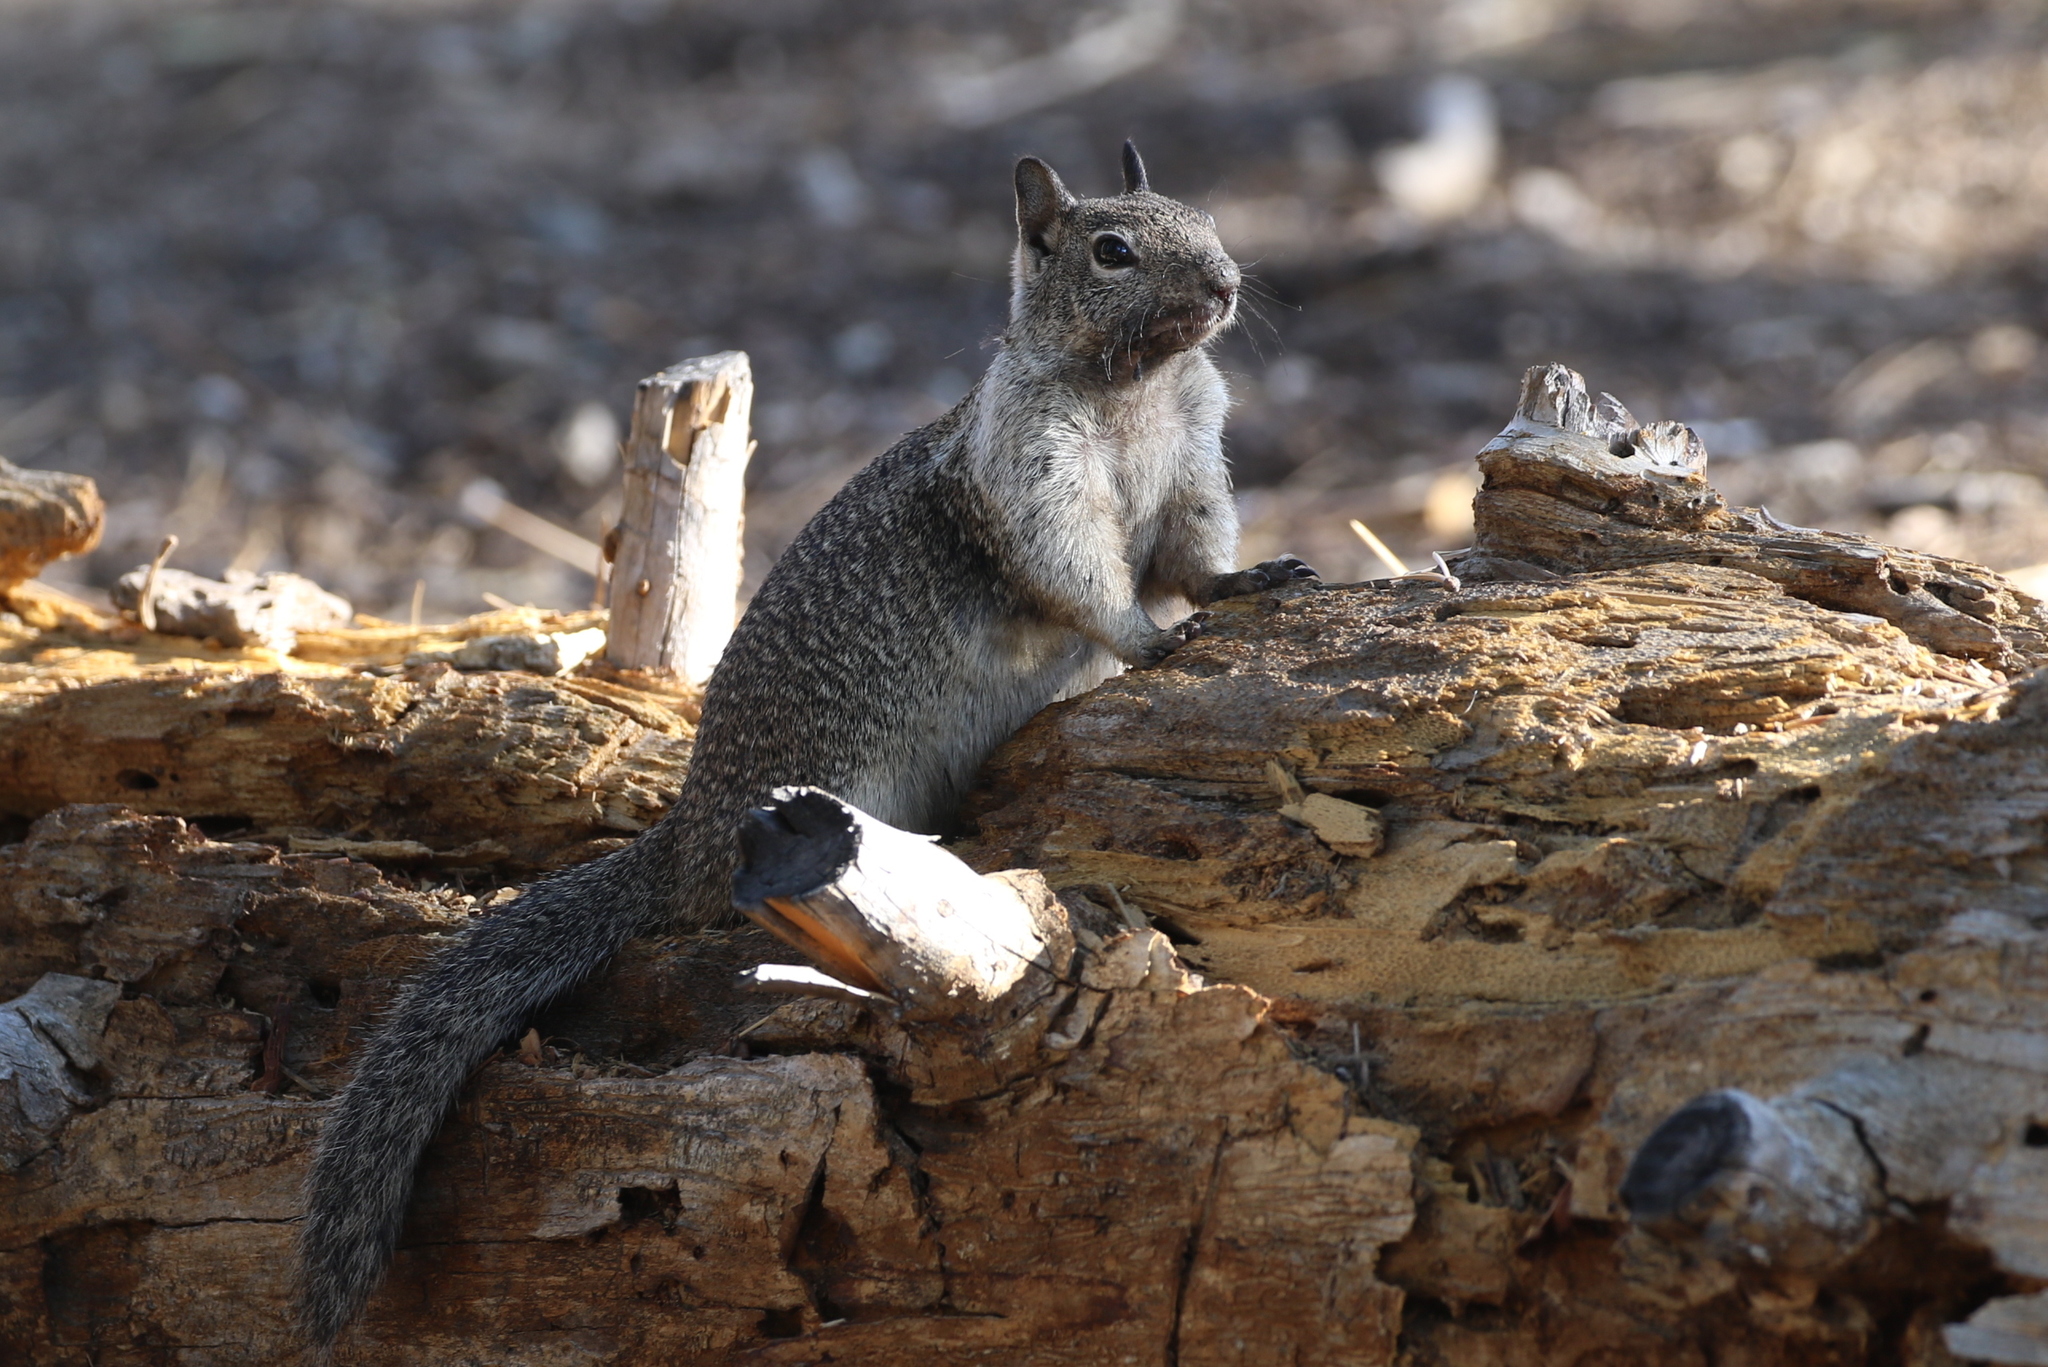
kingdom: Animalia
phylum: Chordata
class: Mammalia
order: Rodentia
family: Sciuridae
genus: Otospermophilus
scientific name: Otospermophilus beecheyi
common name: California ground squirrel
